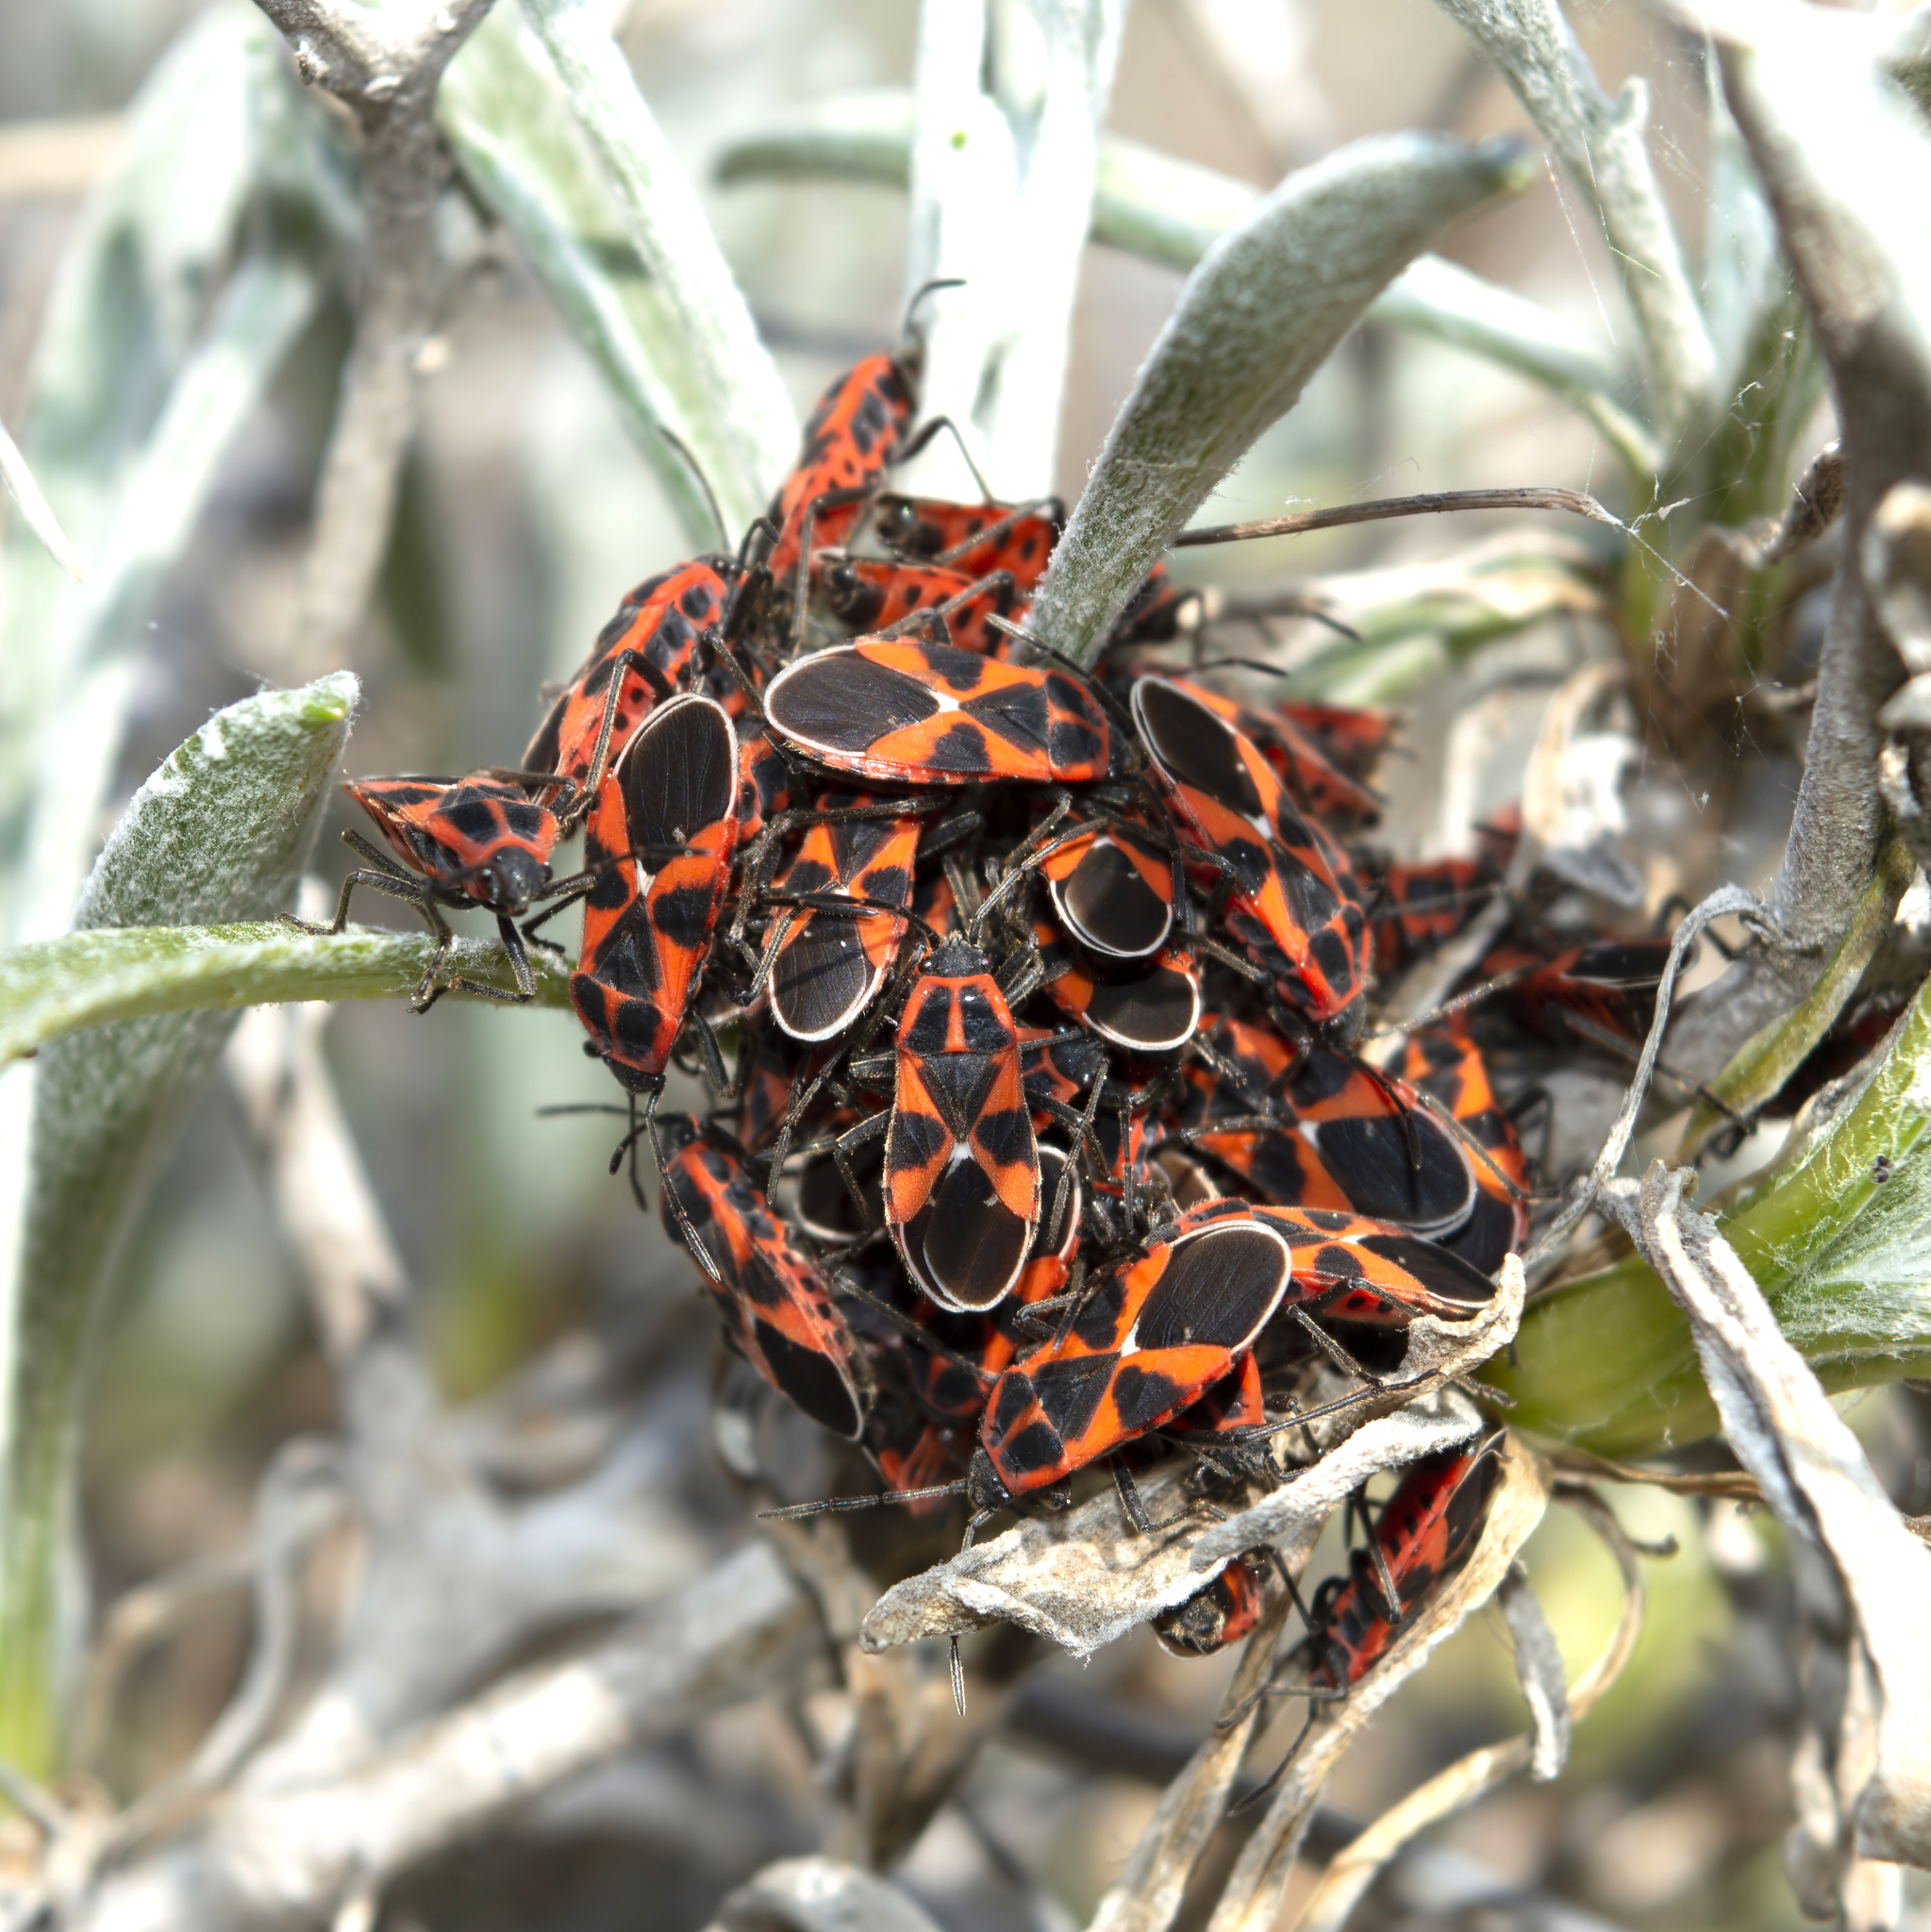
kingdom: Animalia
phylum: Arthropoda
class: Insecta
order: Hemiptera
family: Lygaeidae
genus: Tropidothorax
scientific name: Tropidothorax leucopterus
